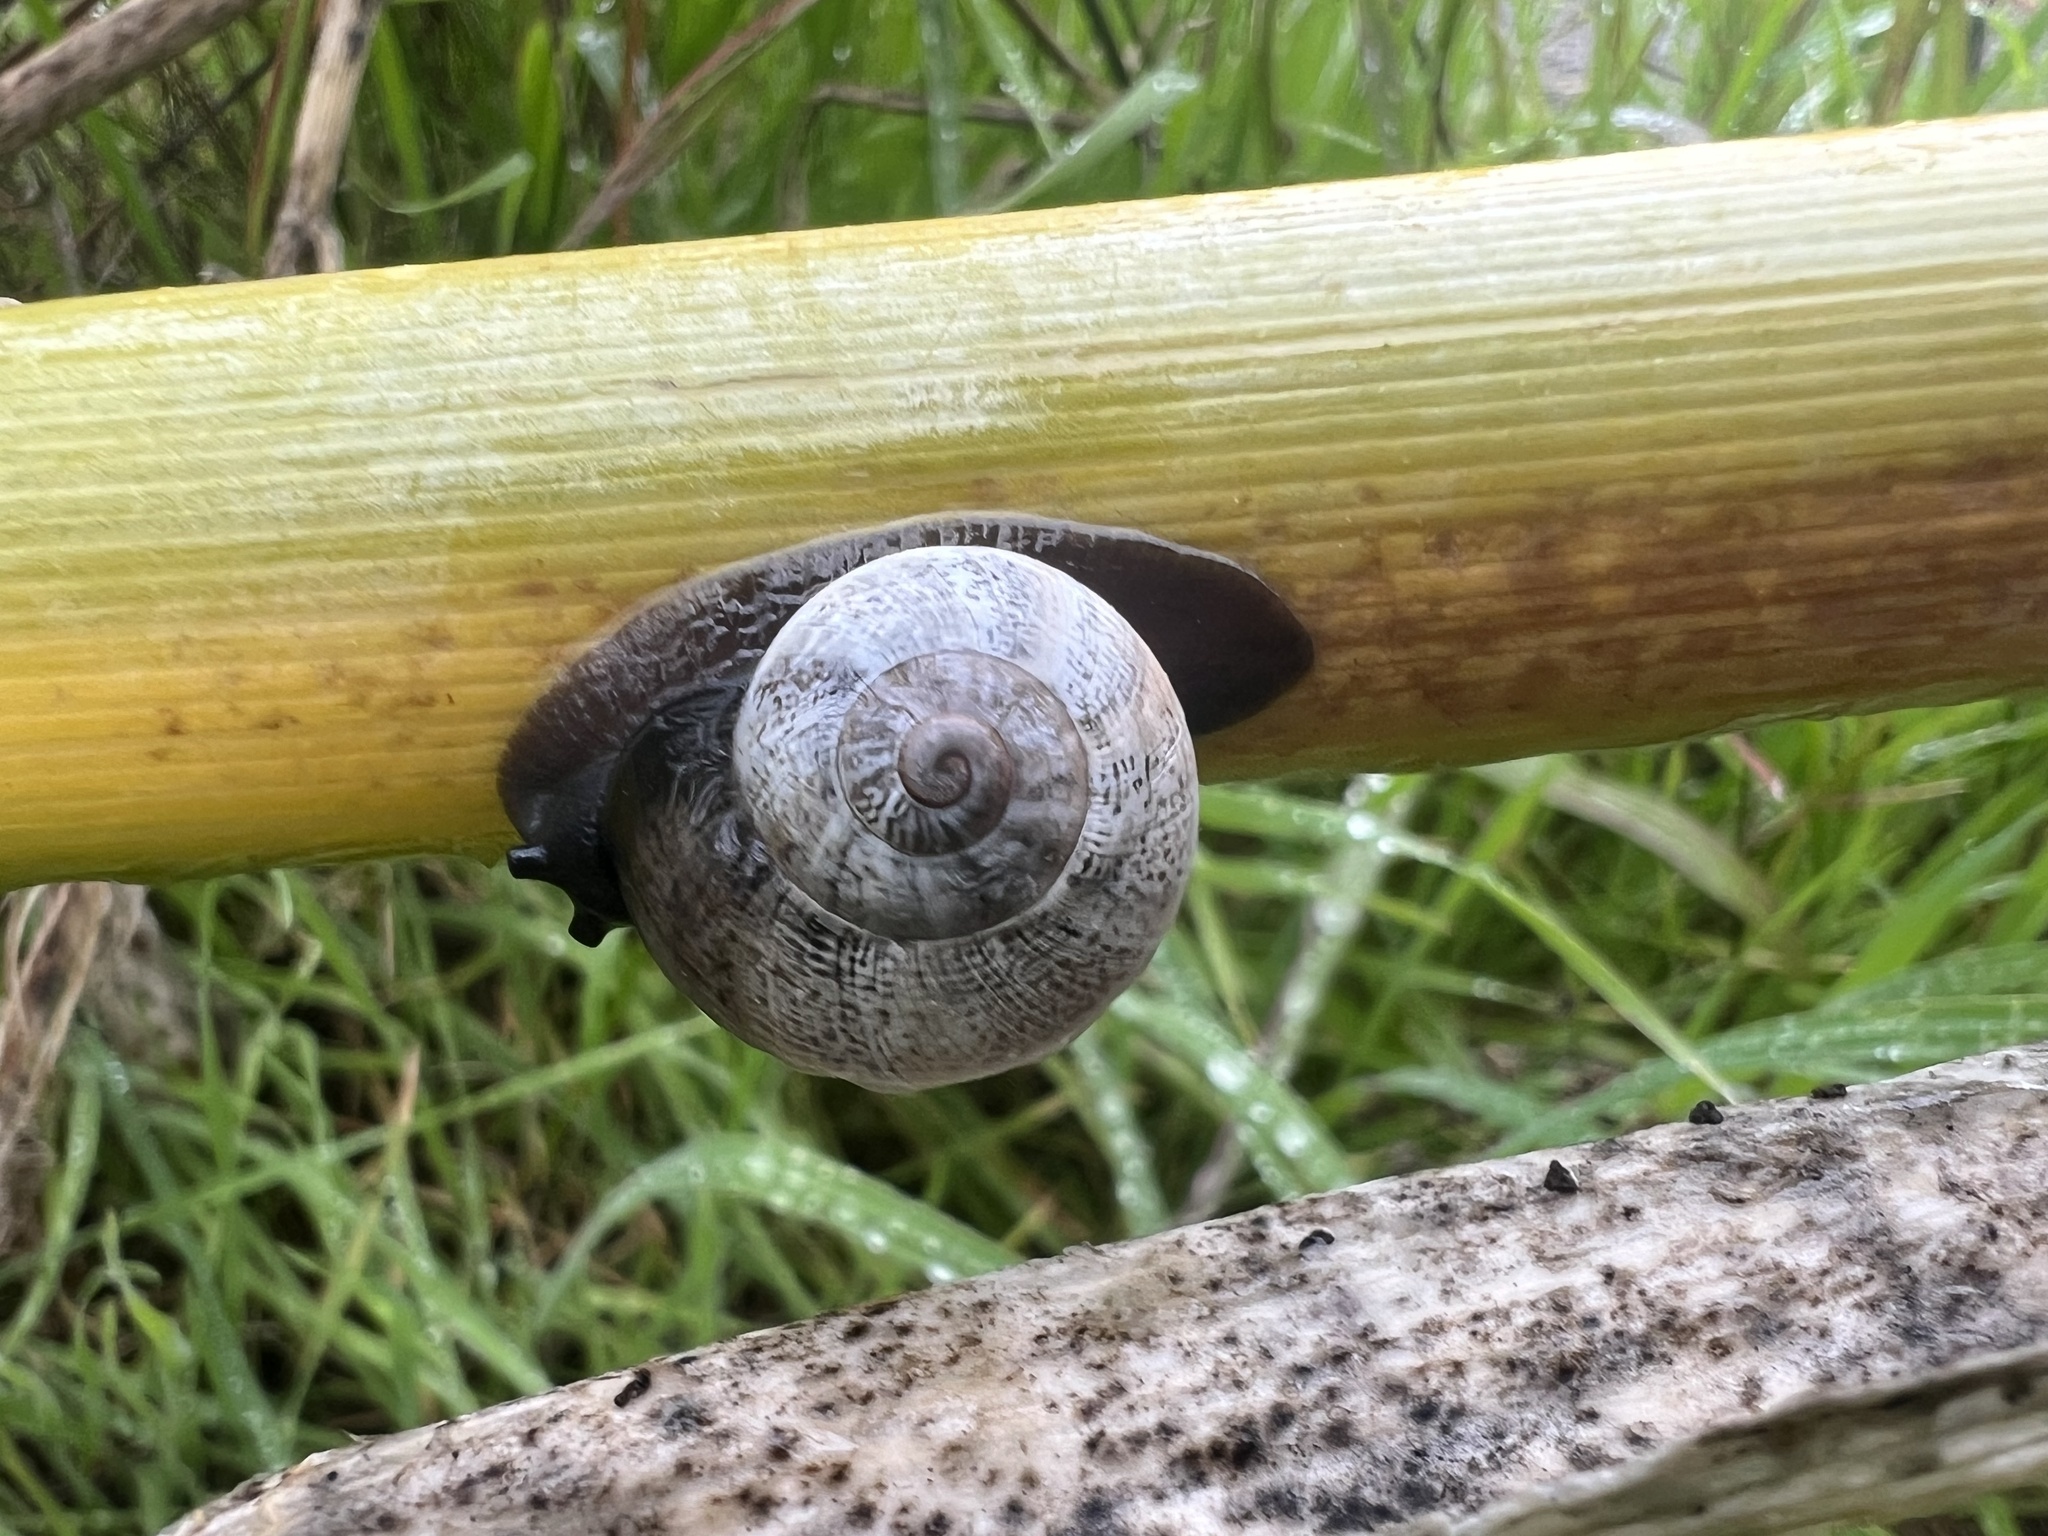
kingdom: Animalia
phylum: Mollusca
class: Gastropoda
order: Stylommatophora
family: Helicidae
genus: Otala
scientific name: Otala lactea
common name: Milk snail
